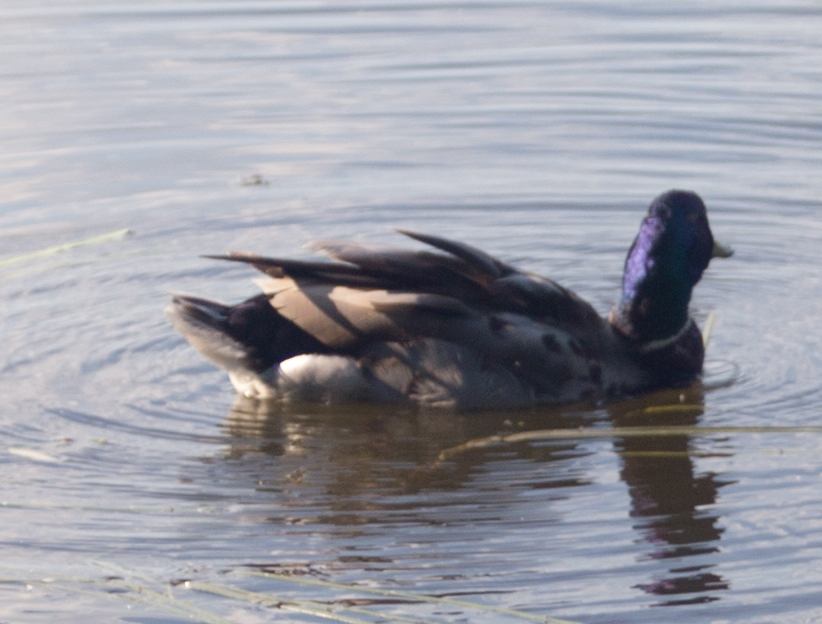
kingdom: Animalia
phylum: Chordata
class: Aves
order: Anseriformes
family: Anatidae
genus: Anas
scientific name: Anas platyrhynchos
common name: Mallard
